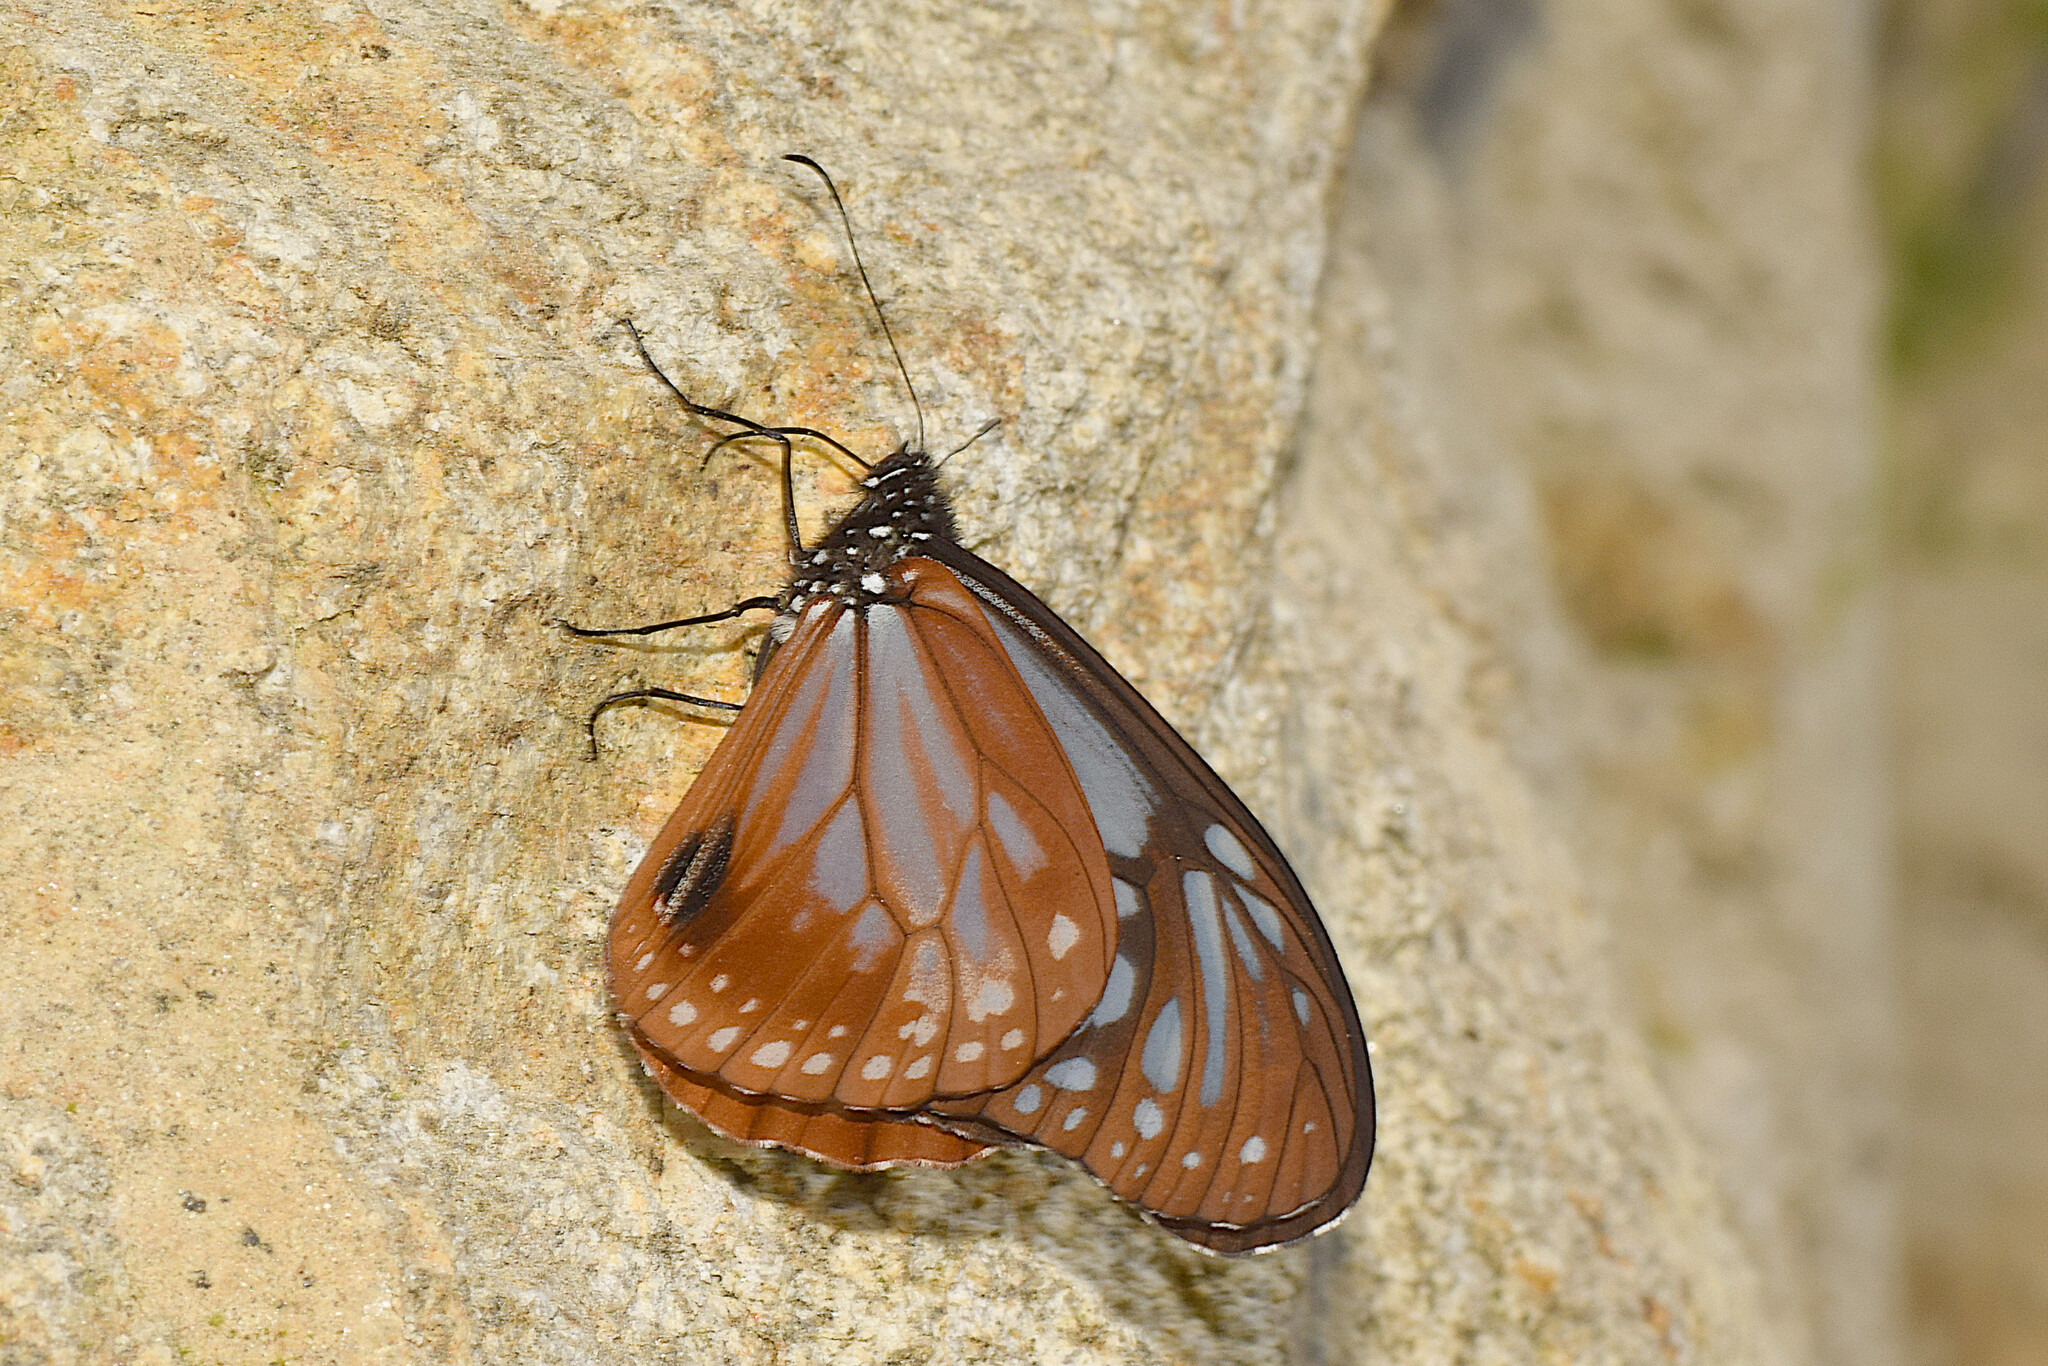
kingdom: Animalia
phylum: Arthropoda
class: Insecta
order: Lepidoptera
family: Nymphalidae
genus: Parantica
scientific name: Parantica pedonga
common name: Pedong tiger
